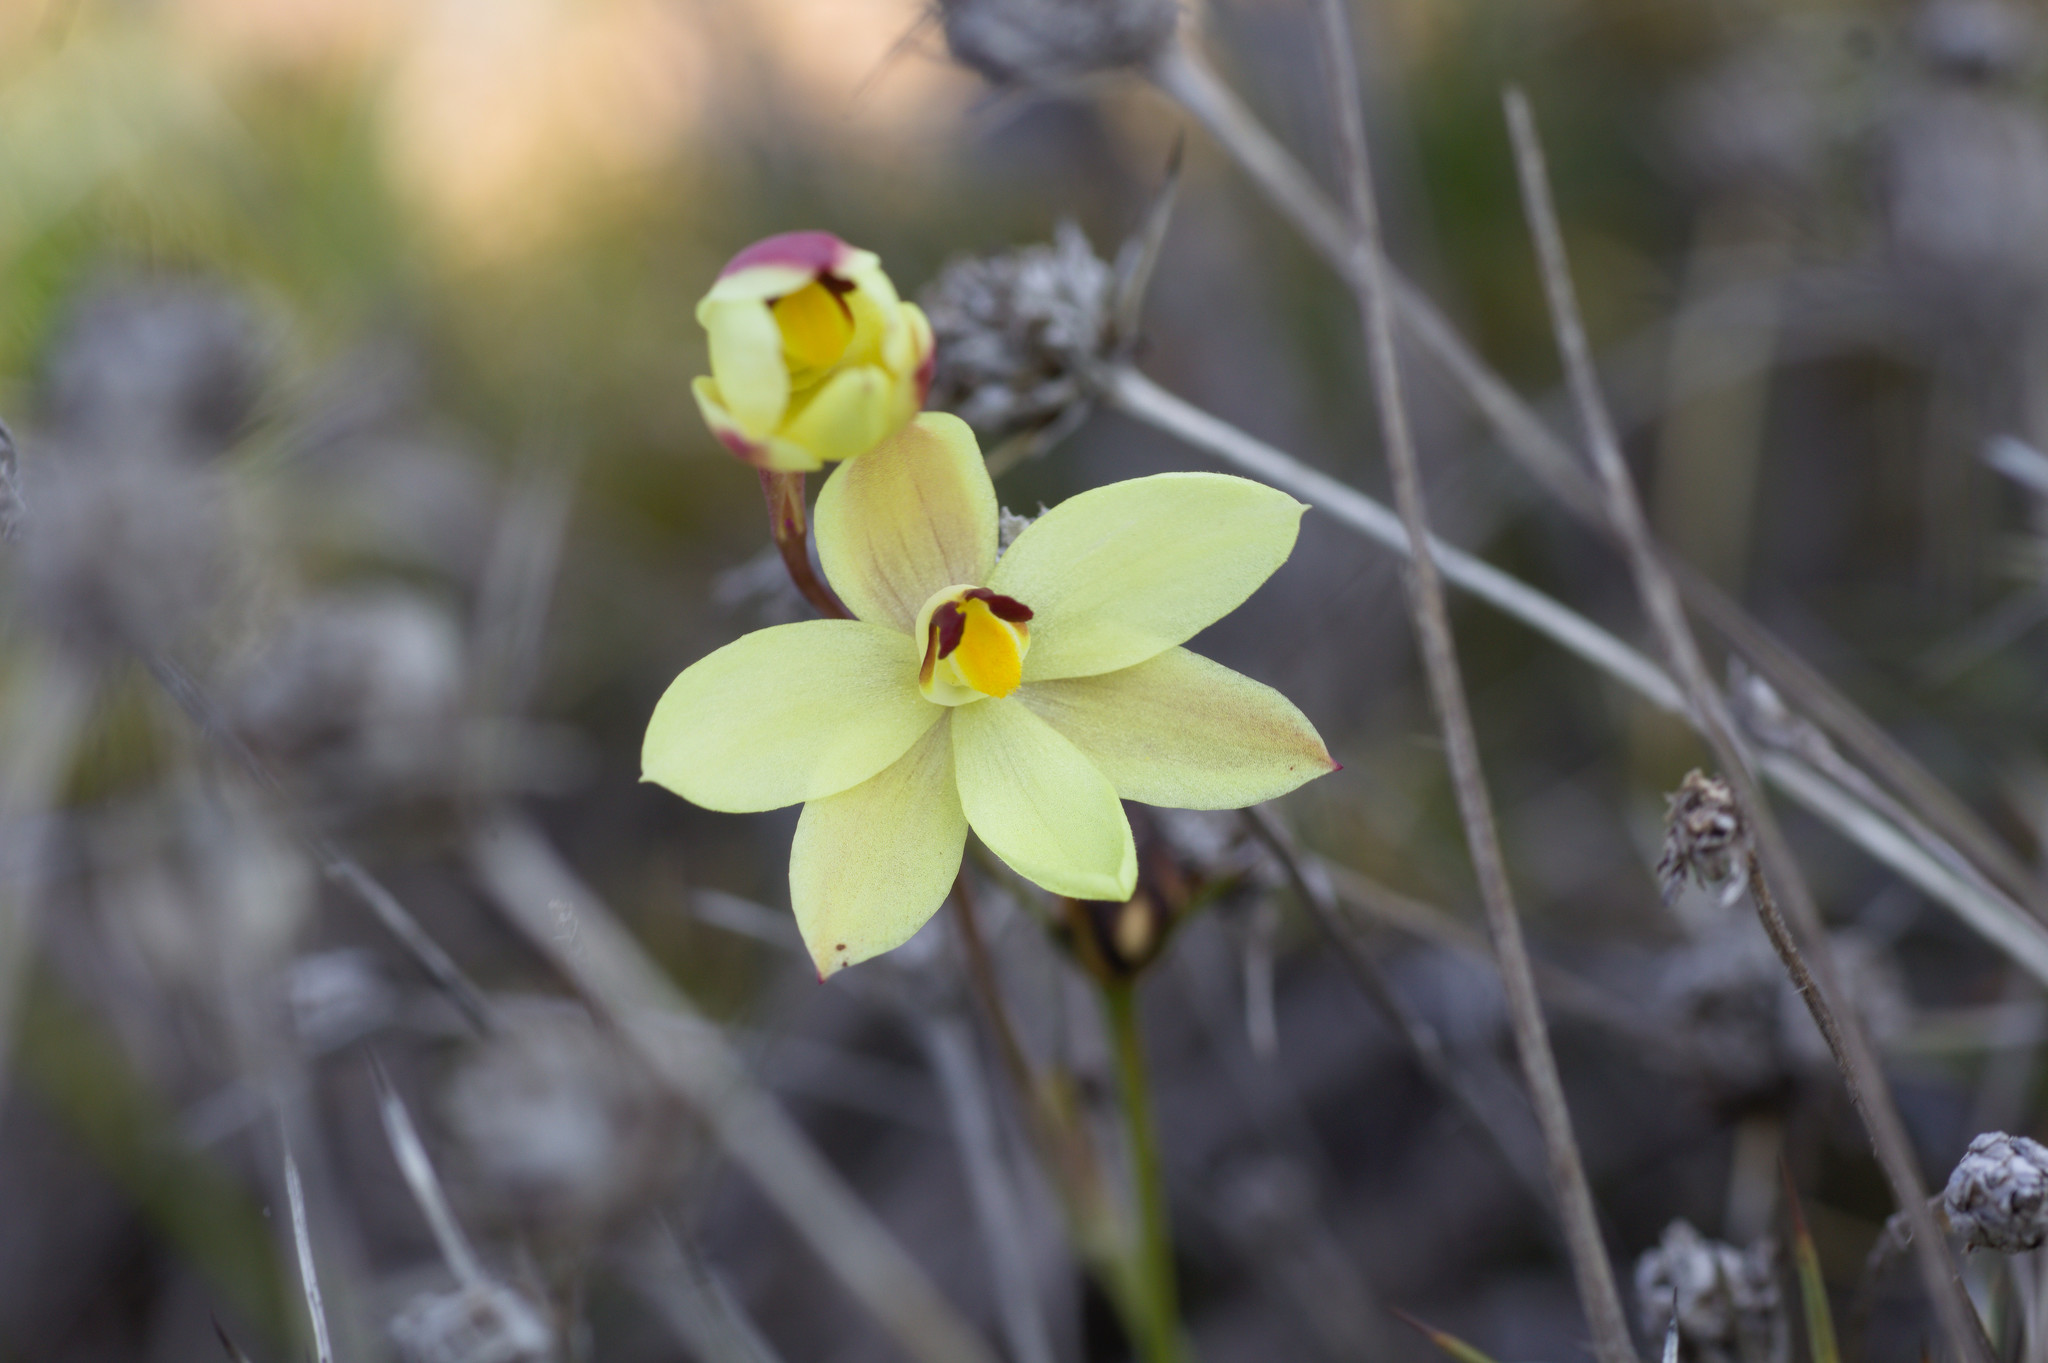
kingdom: Plantae
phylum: Tracheophyta
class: Liliopsida
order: Asparagales
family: Orchidaceae
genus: Thelymitra
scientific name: Thelymitra antennifera
